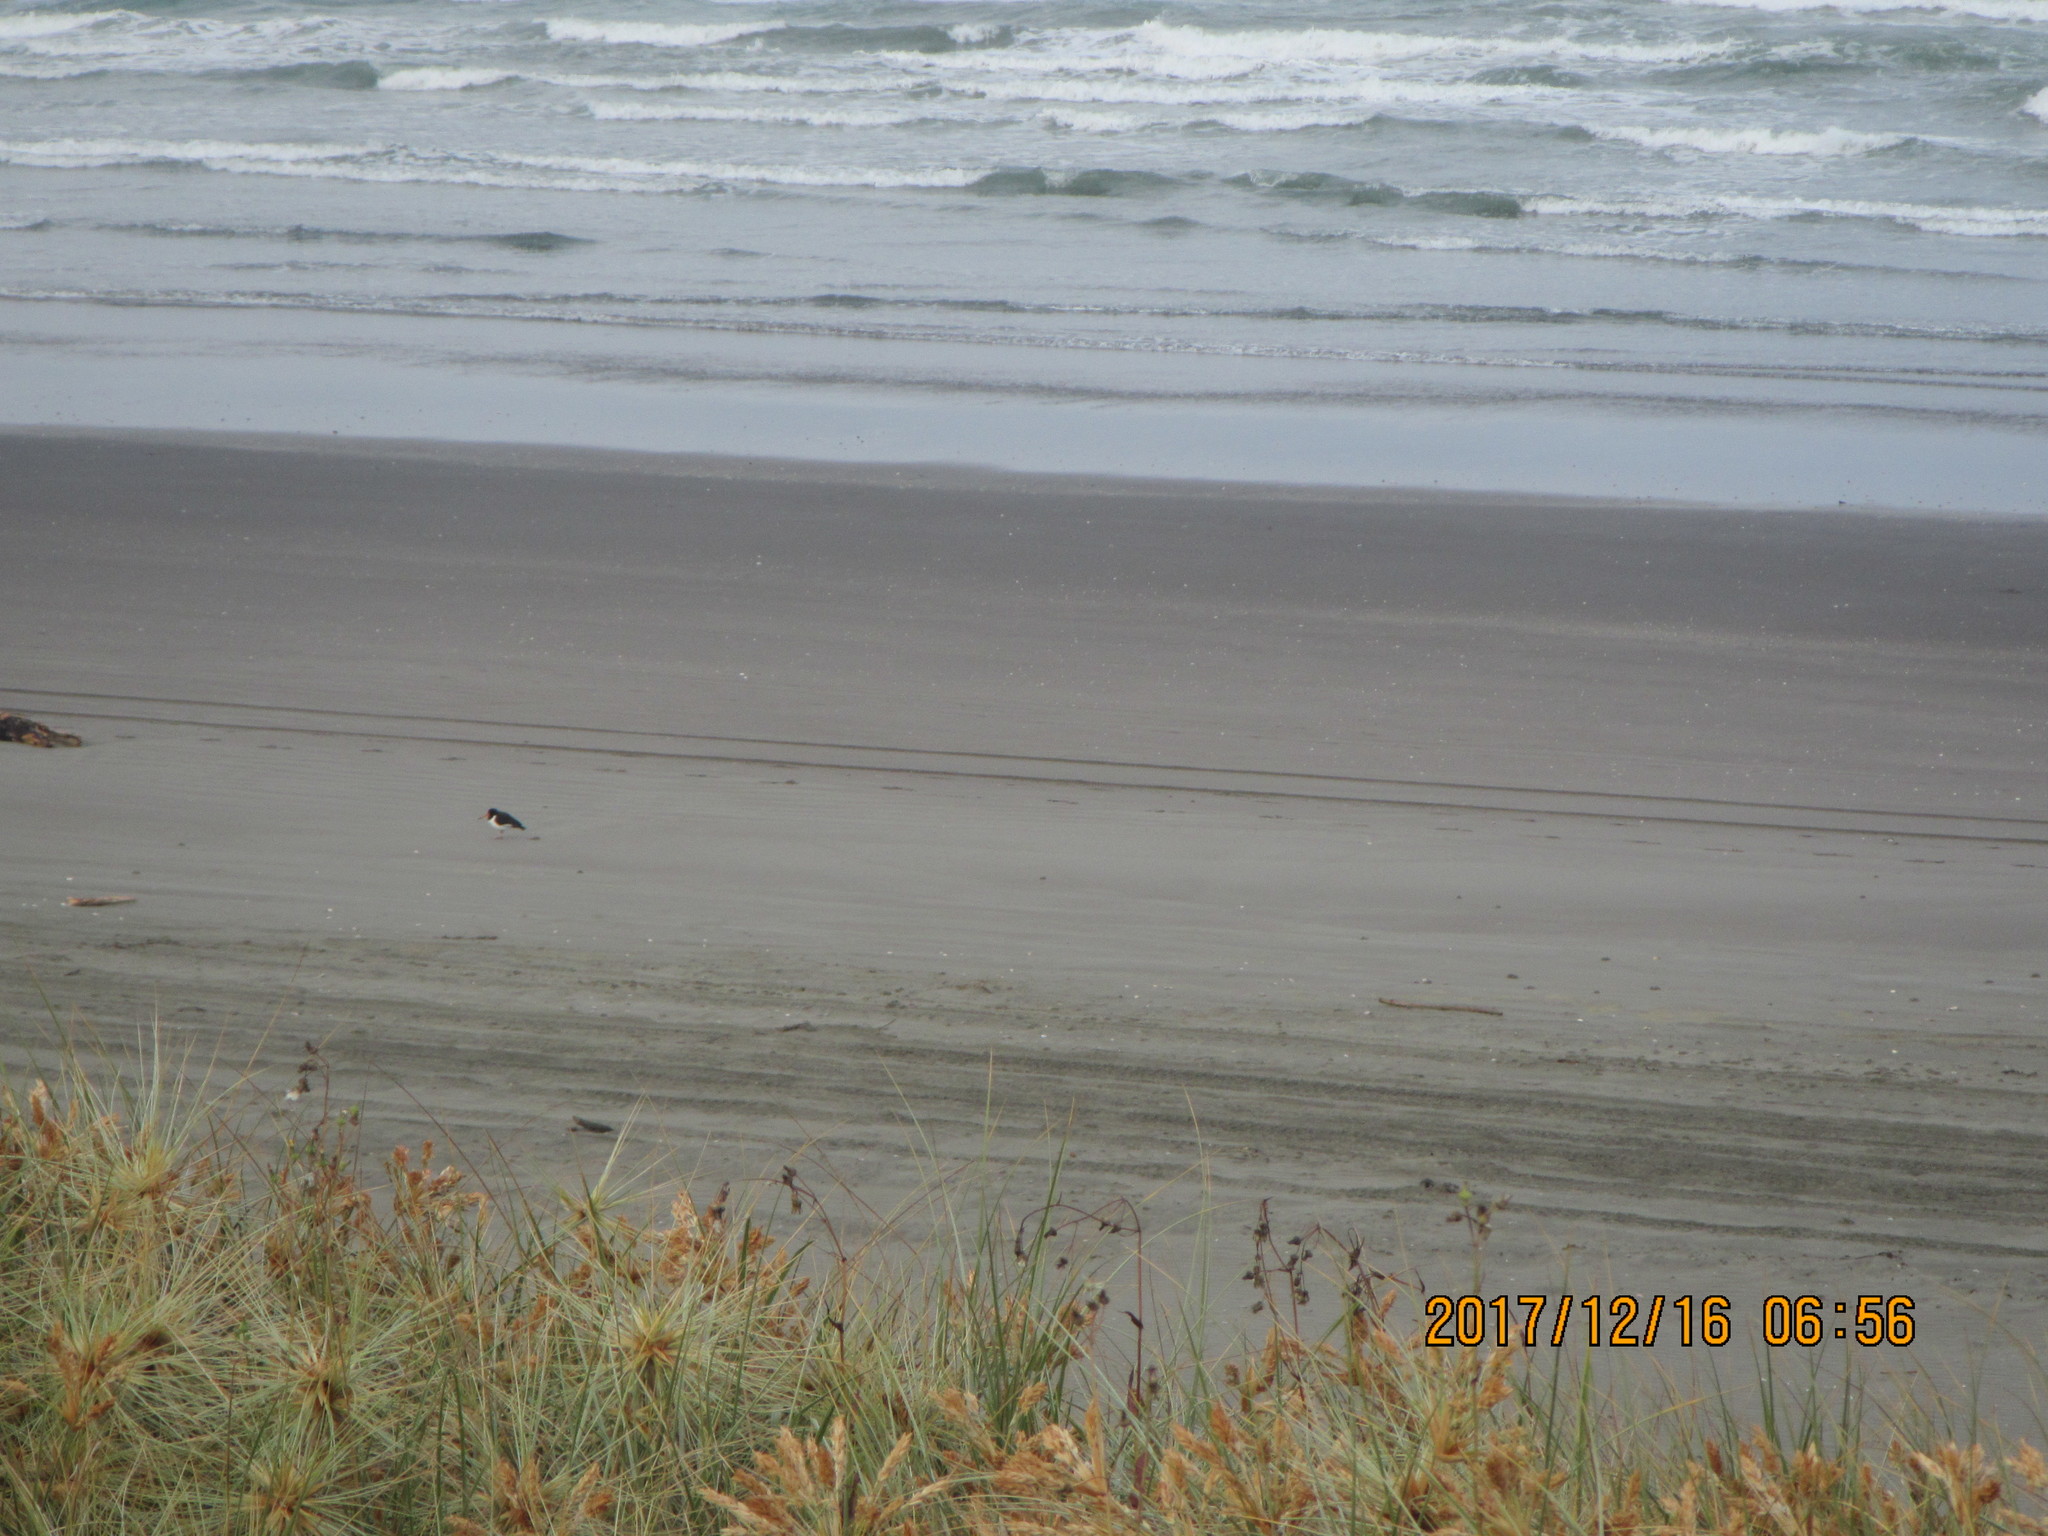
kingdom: Animalia
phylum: Chordata
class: Aves
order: Charadriiformes
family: Haematopodidae
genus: Haematopus
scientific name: Haematopus finschi
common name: South island oystercatcher
